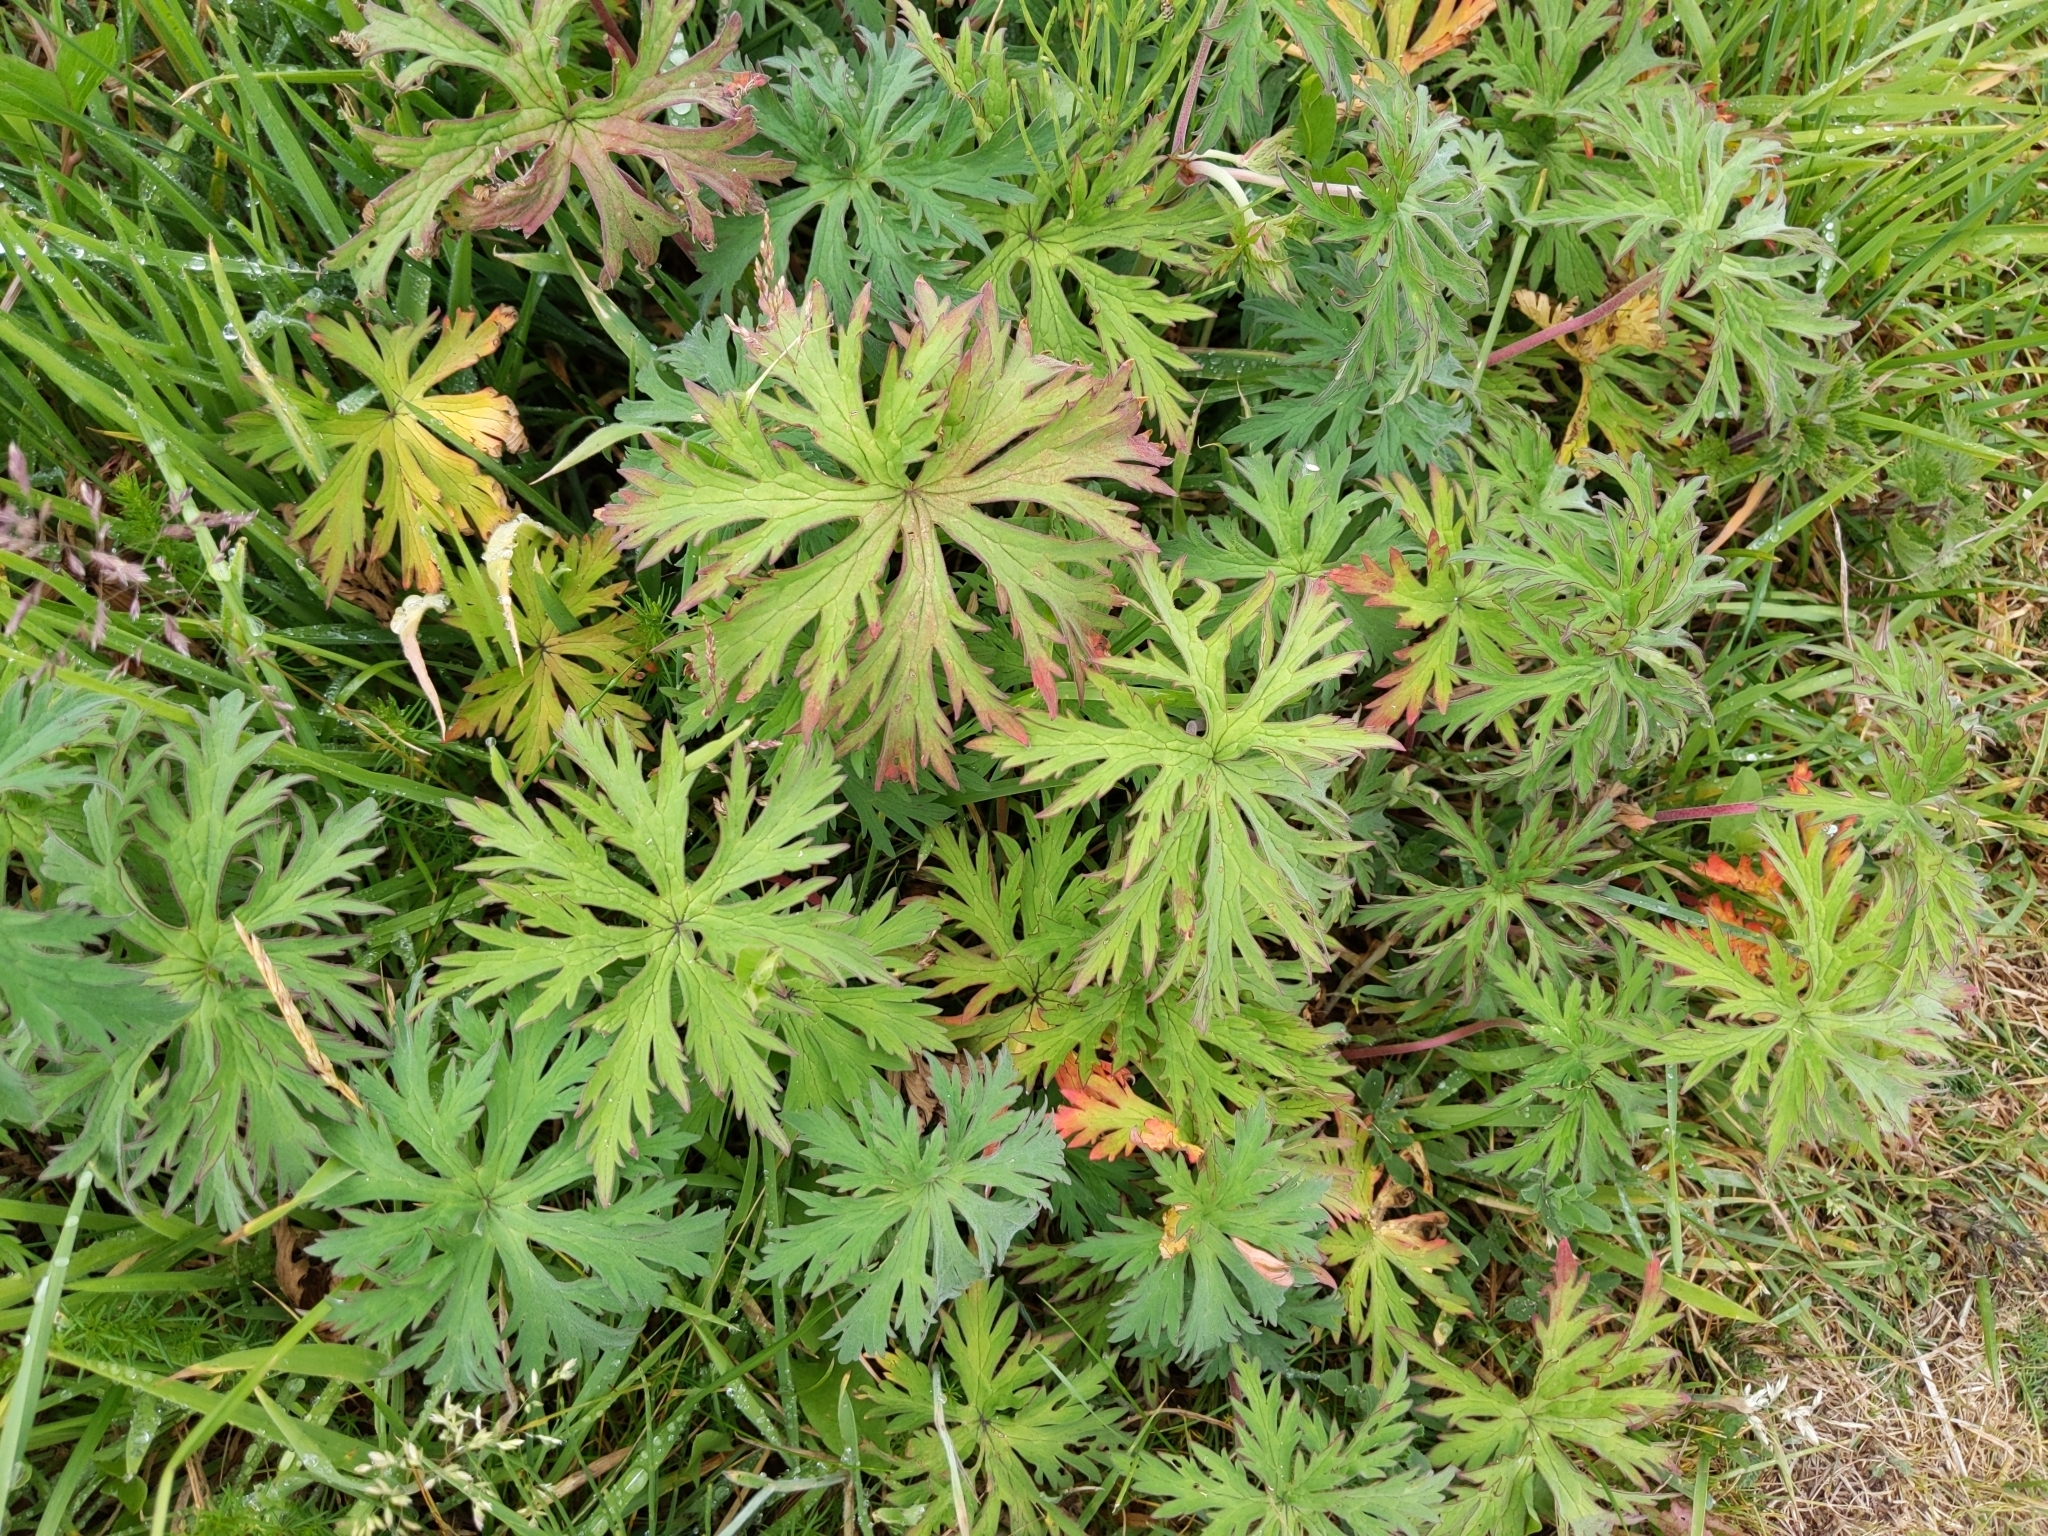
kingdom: Plantae
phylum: Tracheophyta
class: Magnoliopsida
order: Geraniales
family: Geraniaceae
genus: Geranium
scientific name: Geranium pratense
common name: Meadow crane's-bill
